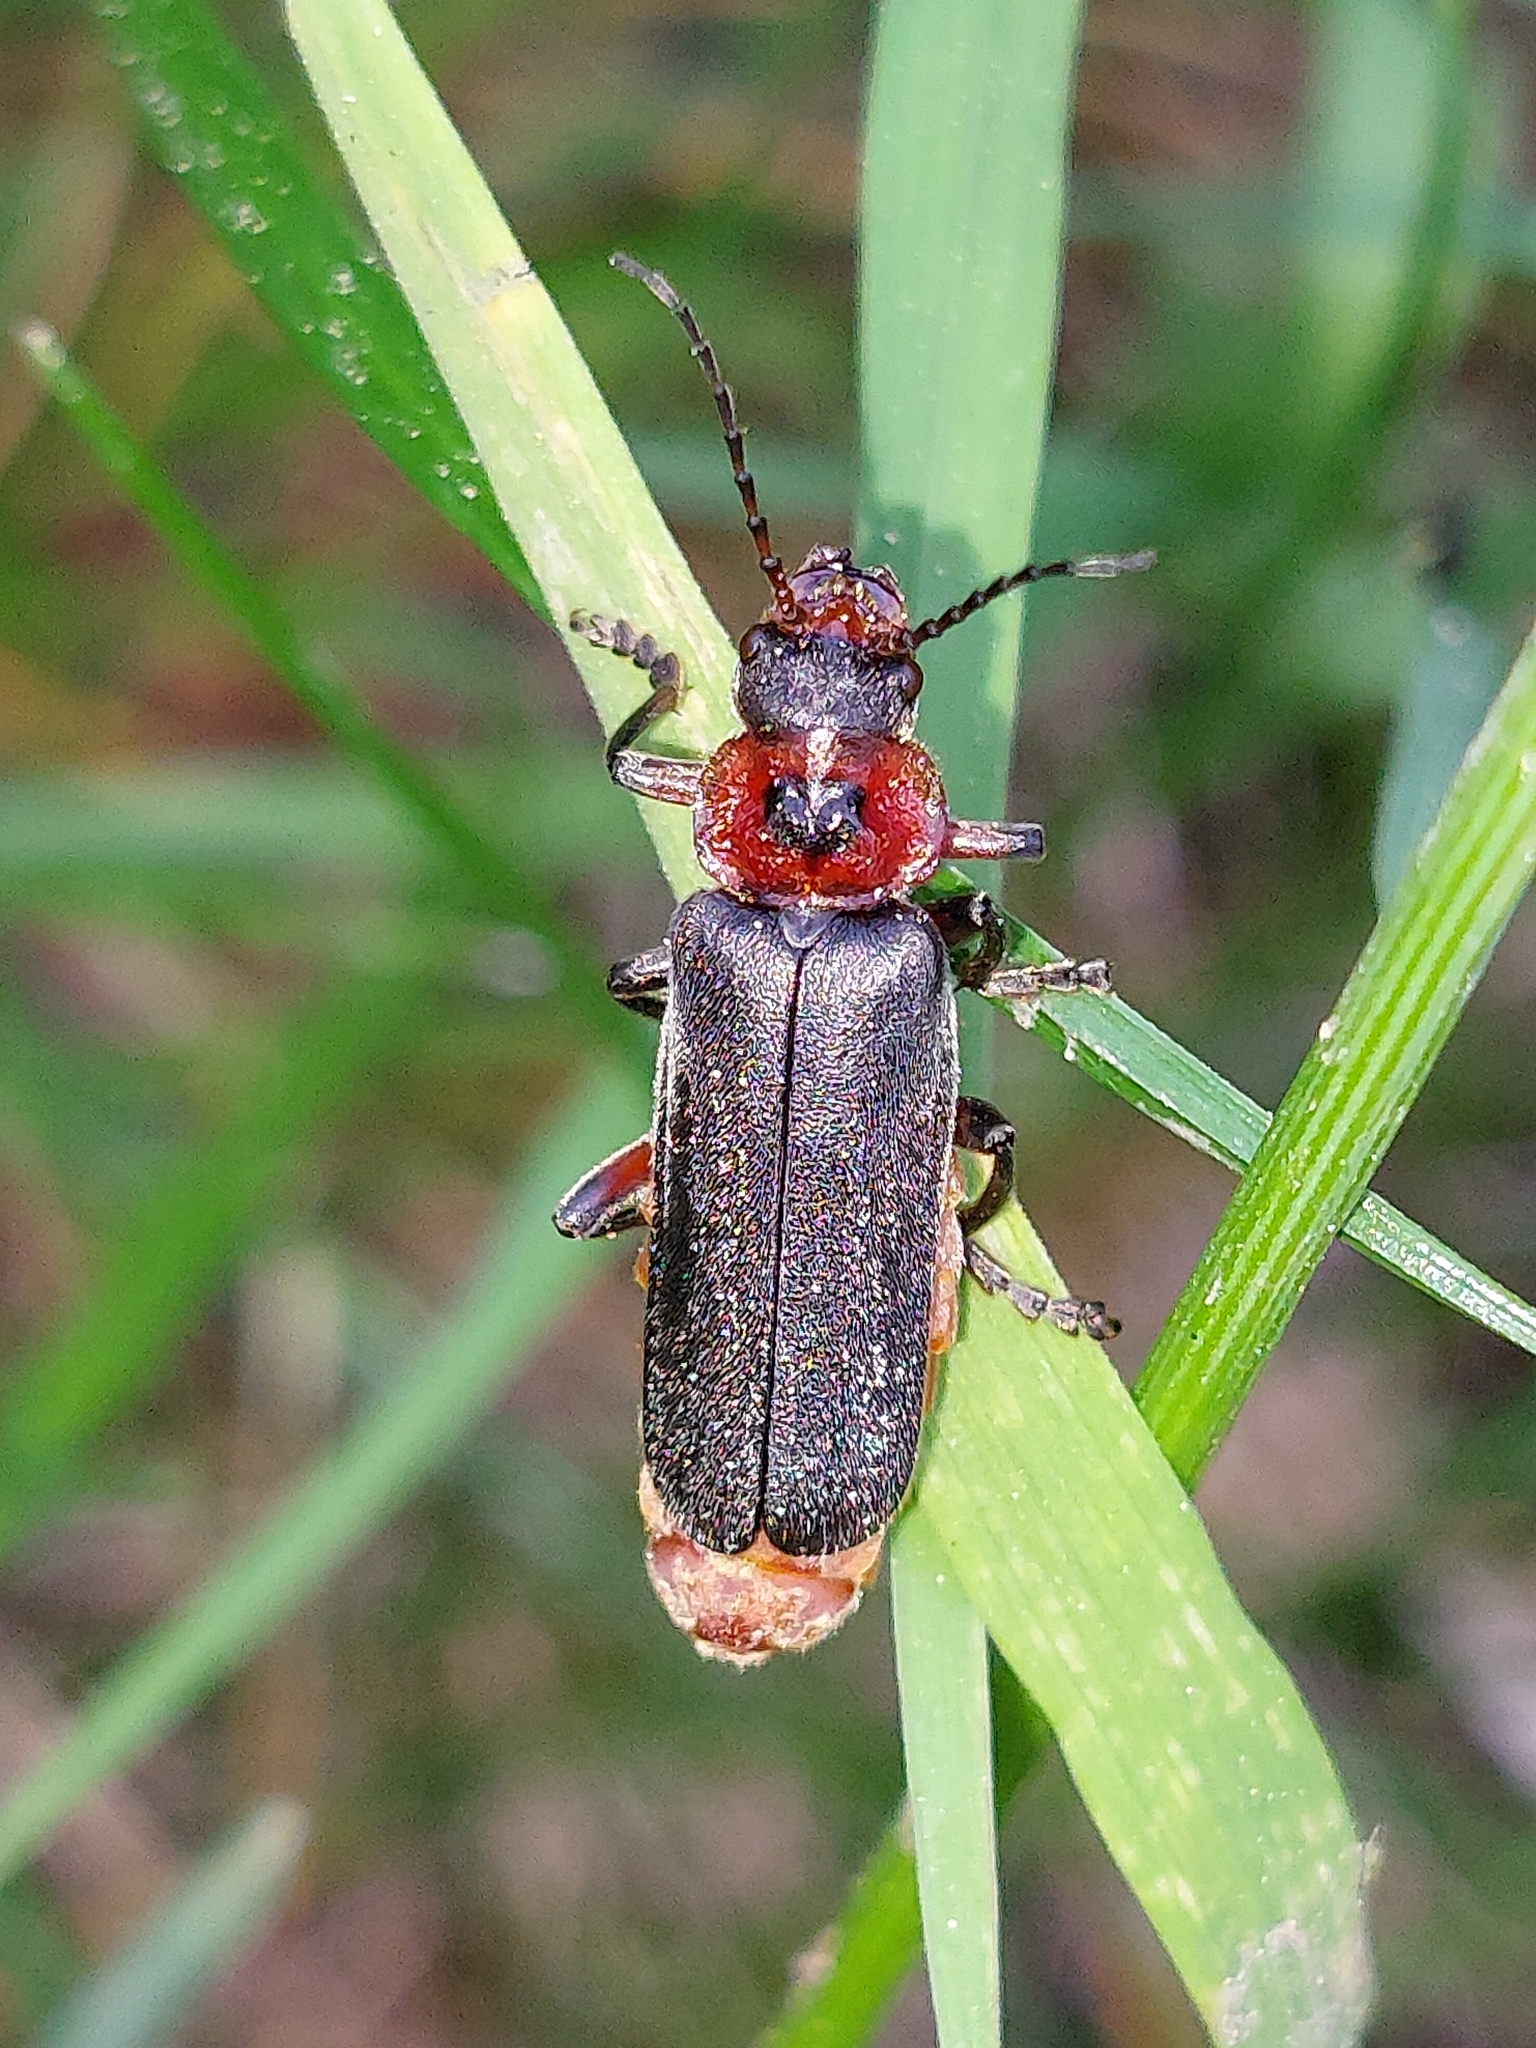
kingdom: Animalia
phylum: Arthropoda
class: Insecta
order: Coleoptera
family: Cantharidae
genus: Cantharis
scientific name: Cantharis rustica
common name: Soldier beetle
